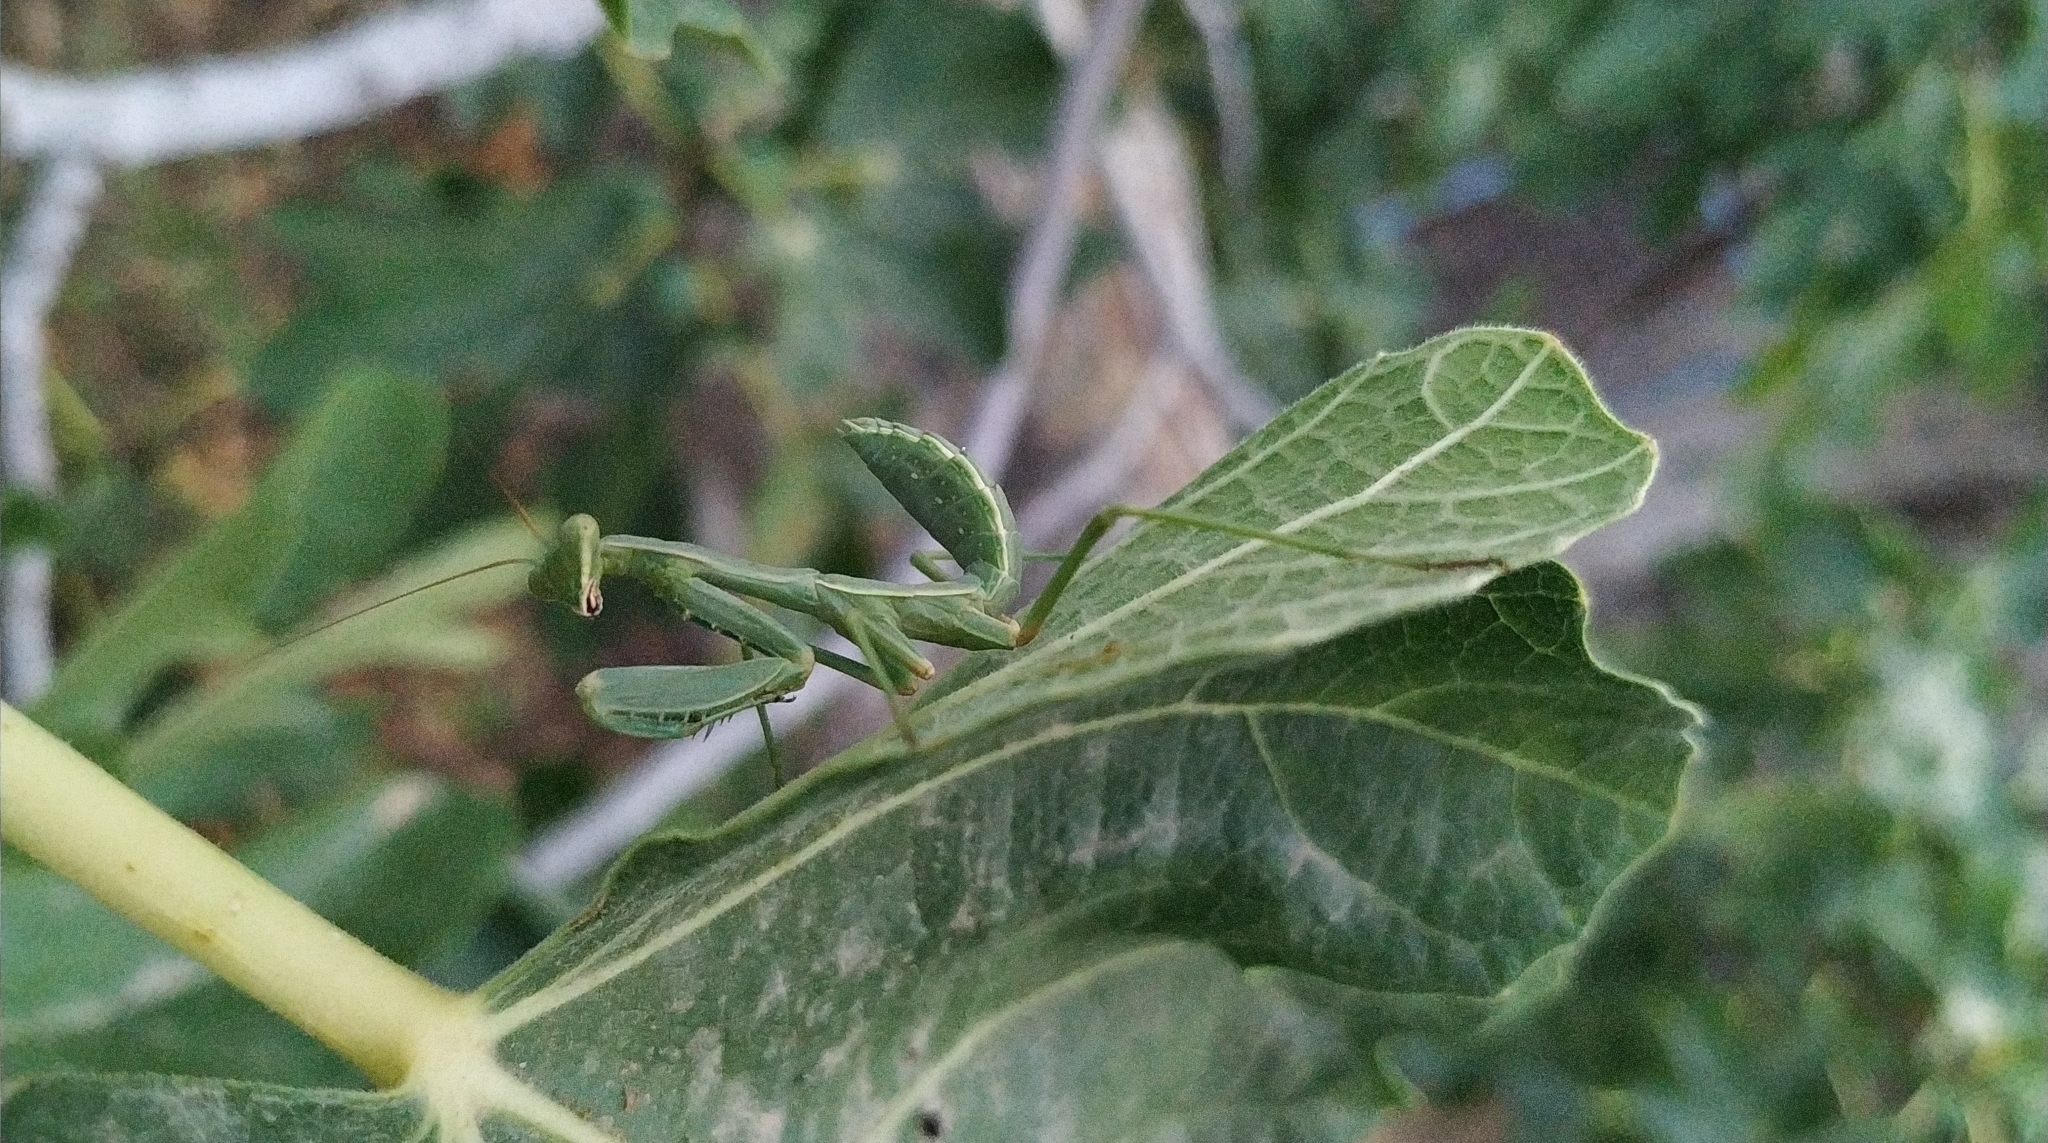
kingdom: Animalia
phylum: Arthropoda
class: Insecta
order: Mantodea
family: Mantidae
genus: Sphodromantis
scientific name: Sphodromantis viridis
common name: Giant african mantis
